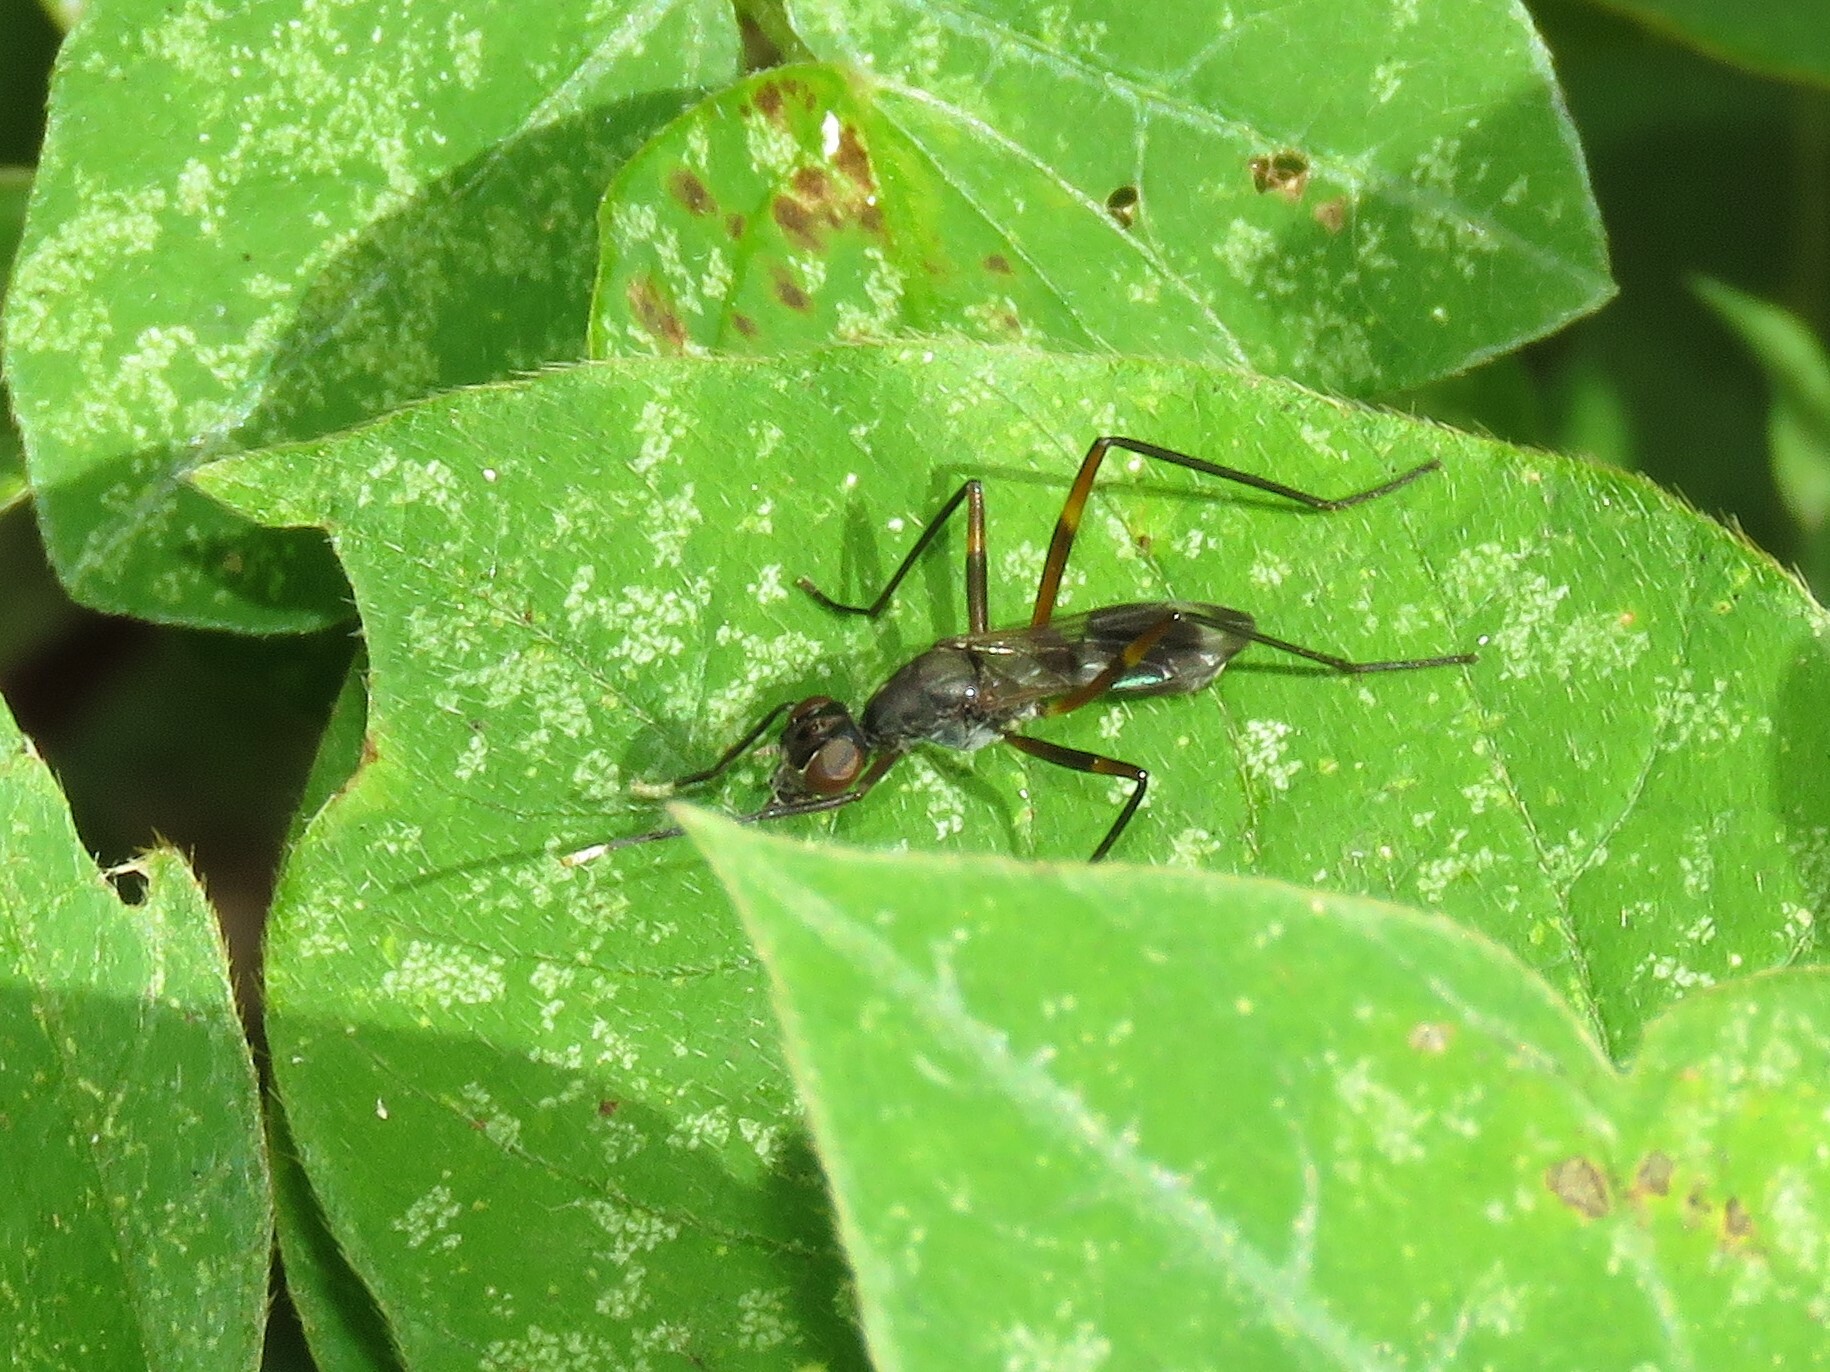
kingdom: Animalia
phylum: Arthropoda
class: Insecta
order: Diptera
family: Micropezidae
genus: Taeniaptera
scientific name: Taeniaptera trivittata
